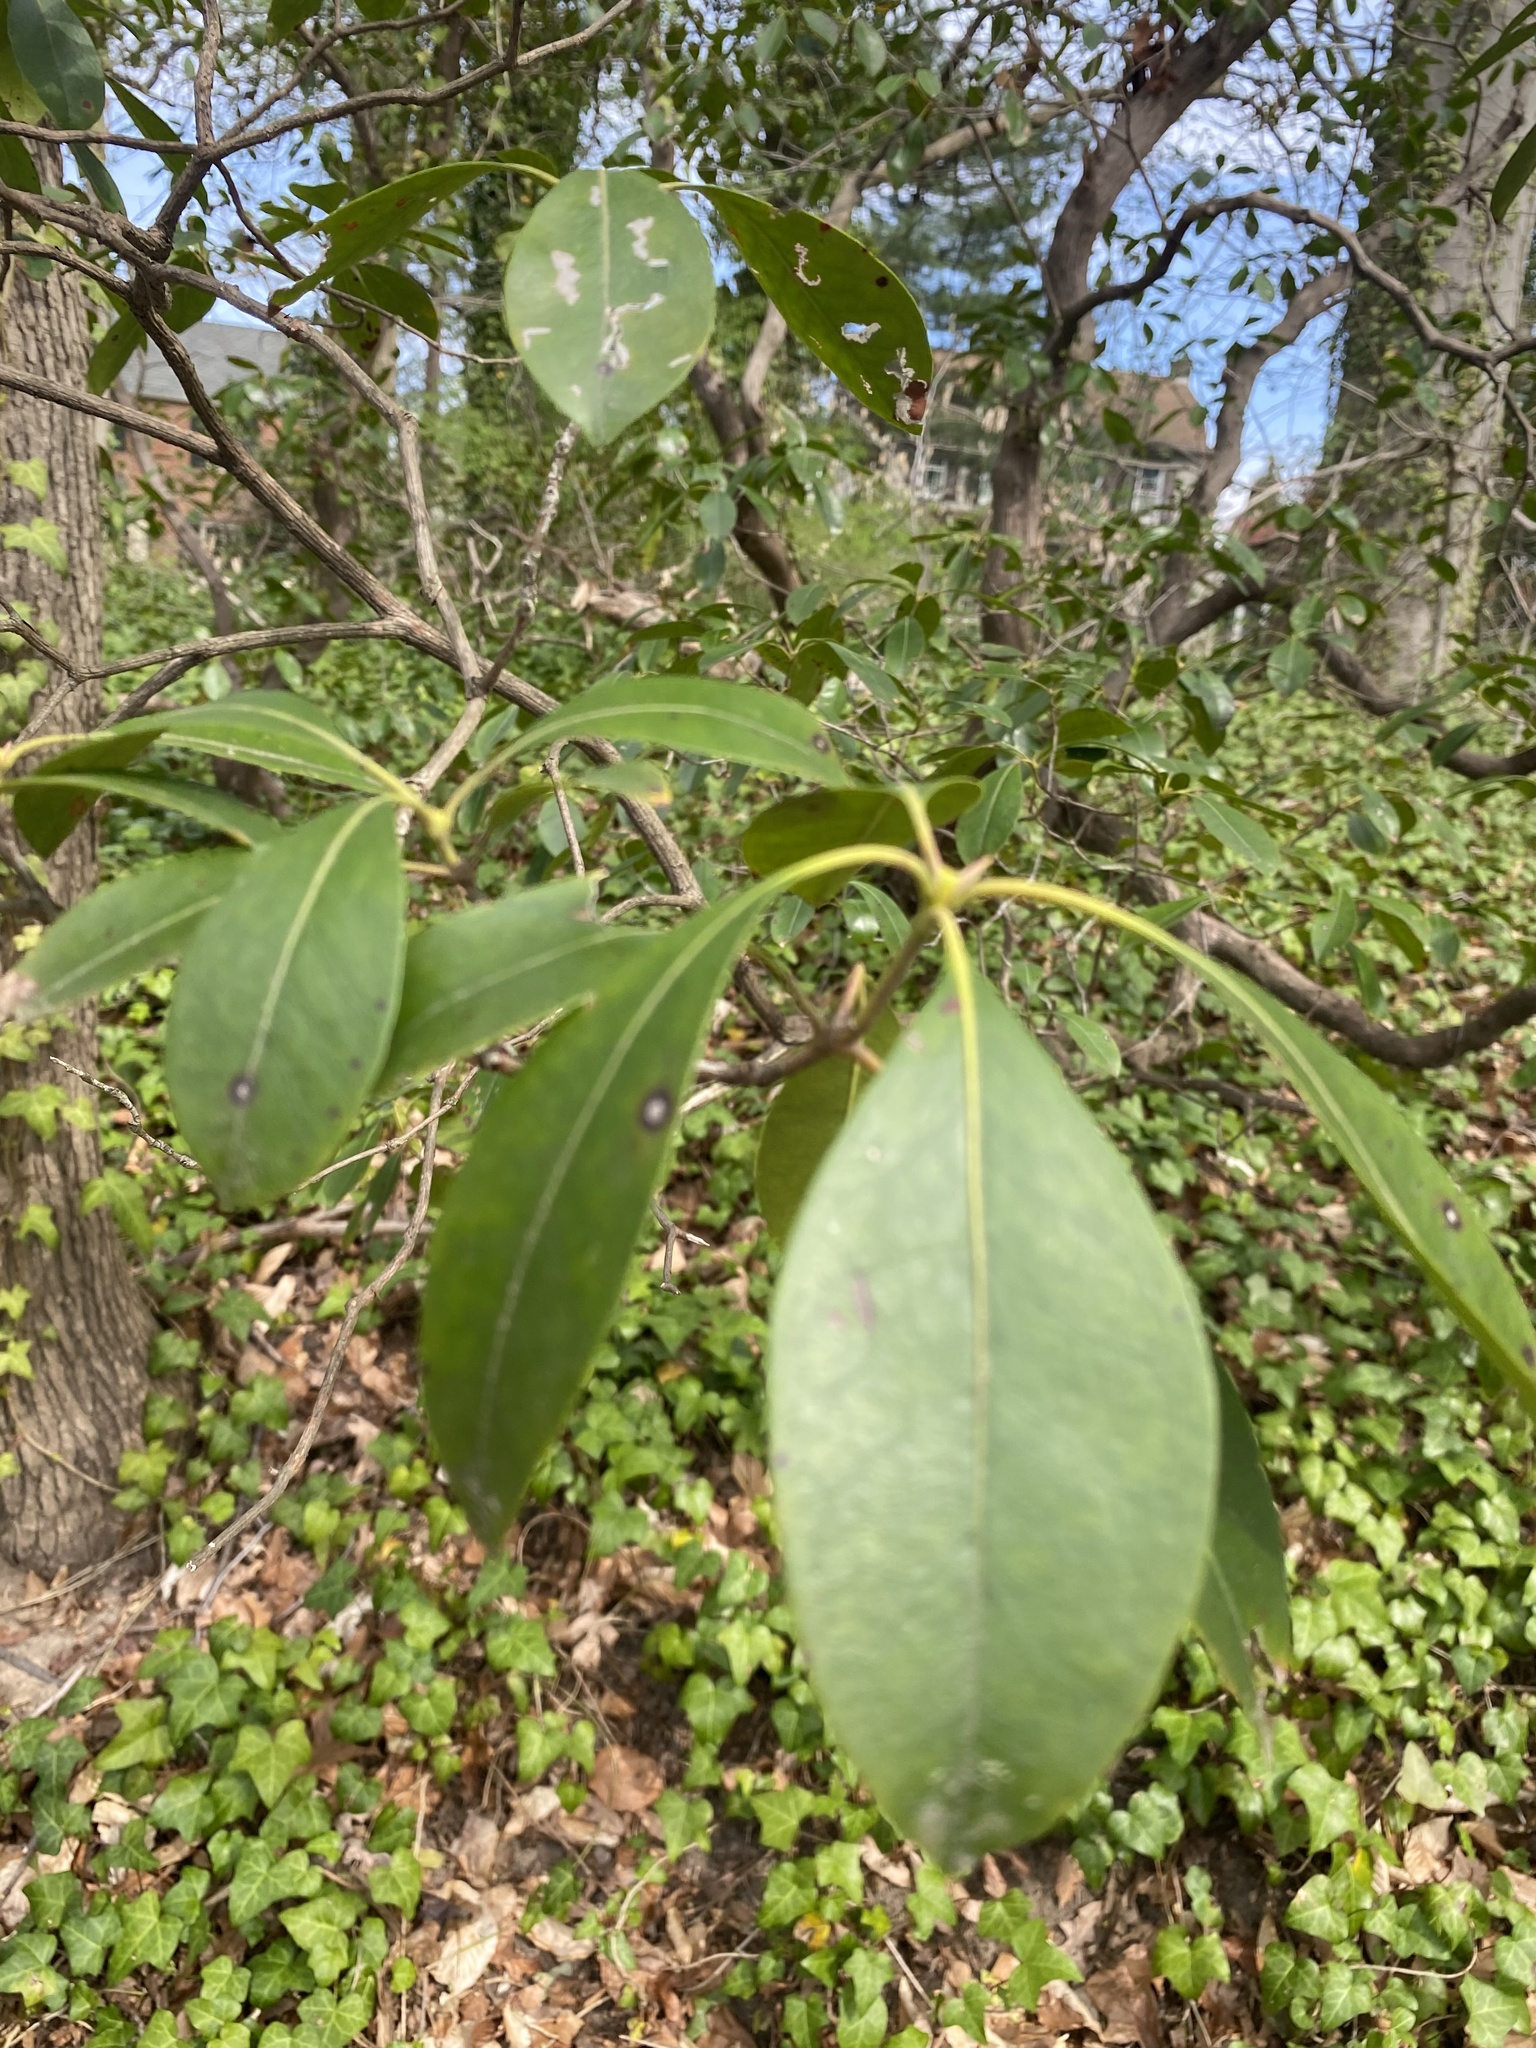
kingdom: Plantae
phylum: Tracheophyta
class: Magnoliopsida
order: Ericales
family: Ericaceae
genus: Kalmia
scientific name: Kalmia latifolia
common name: Mountain-laurel
